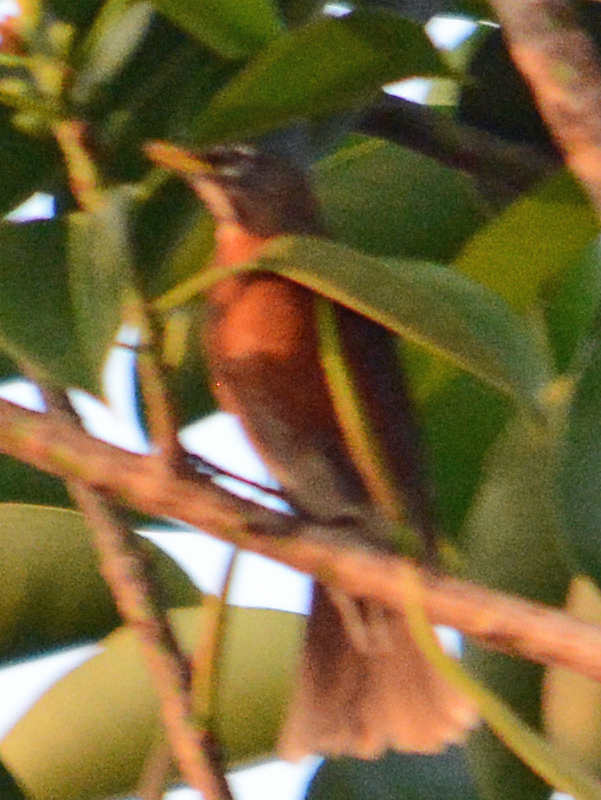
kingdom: Animalia
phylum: Chordata
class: Aves
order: Passeriformes
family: Turdidae
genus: Turdus
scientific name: Turdus migratorius
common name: American robin
